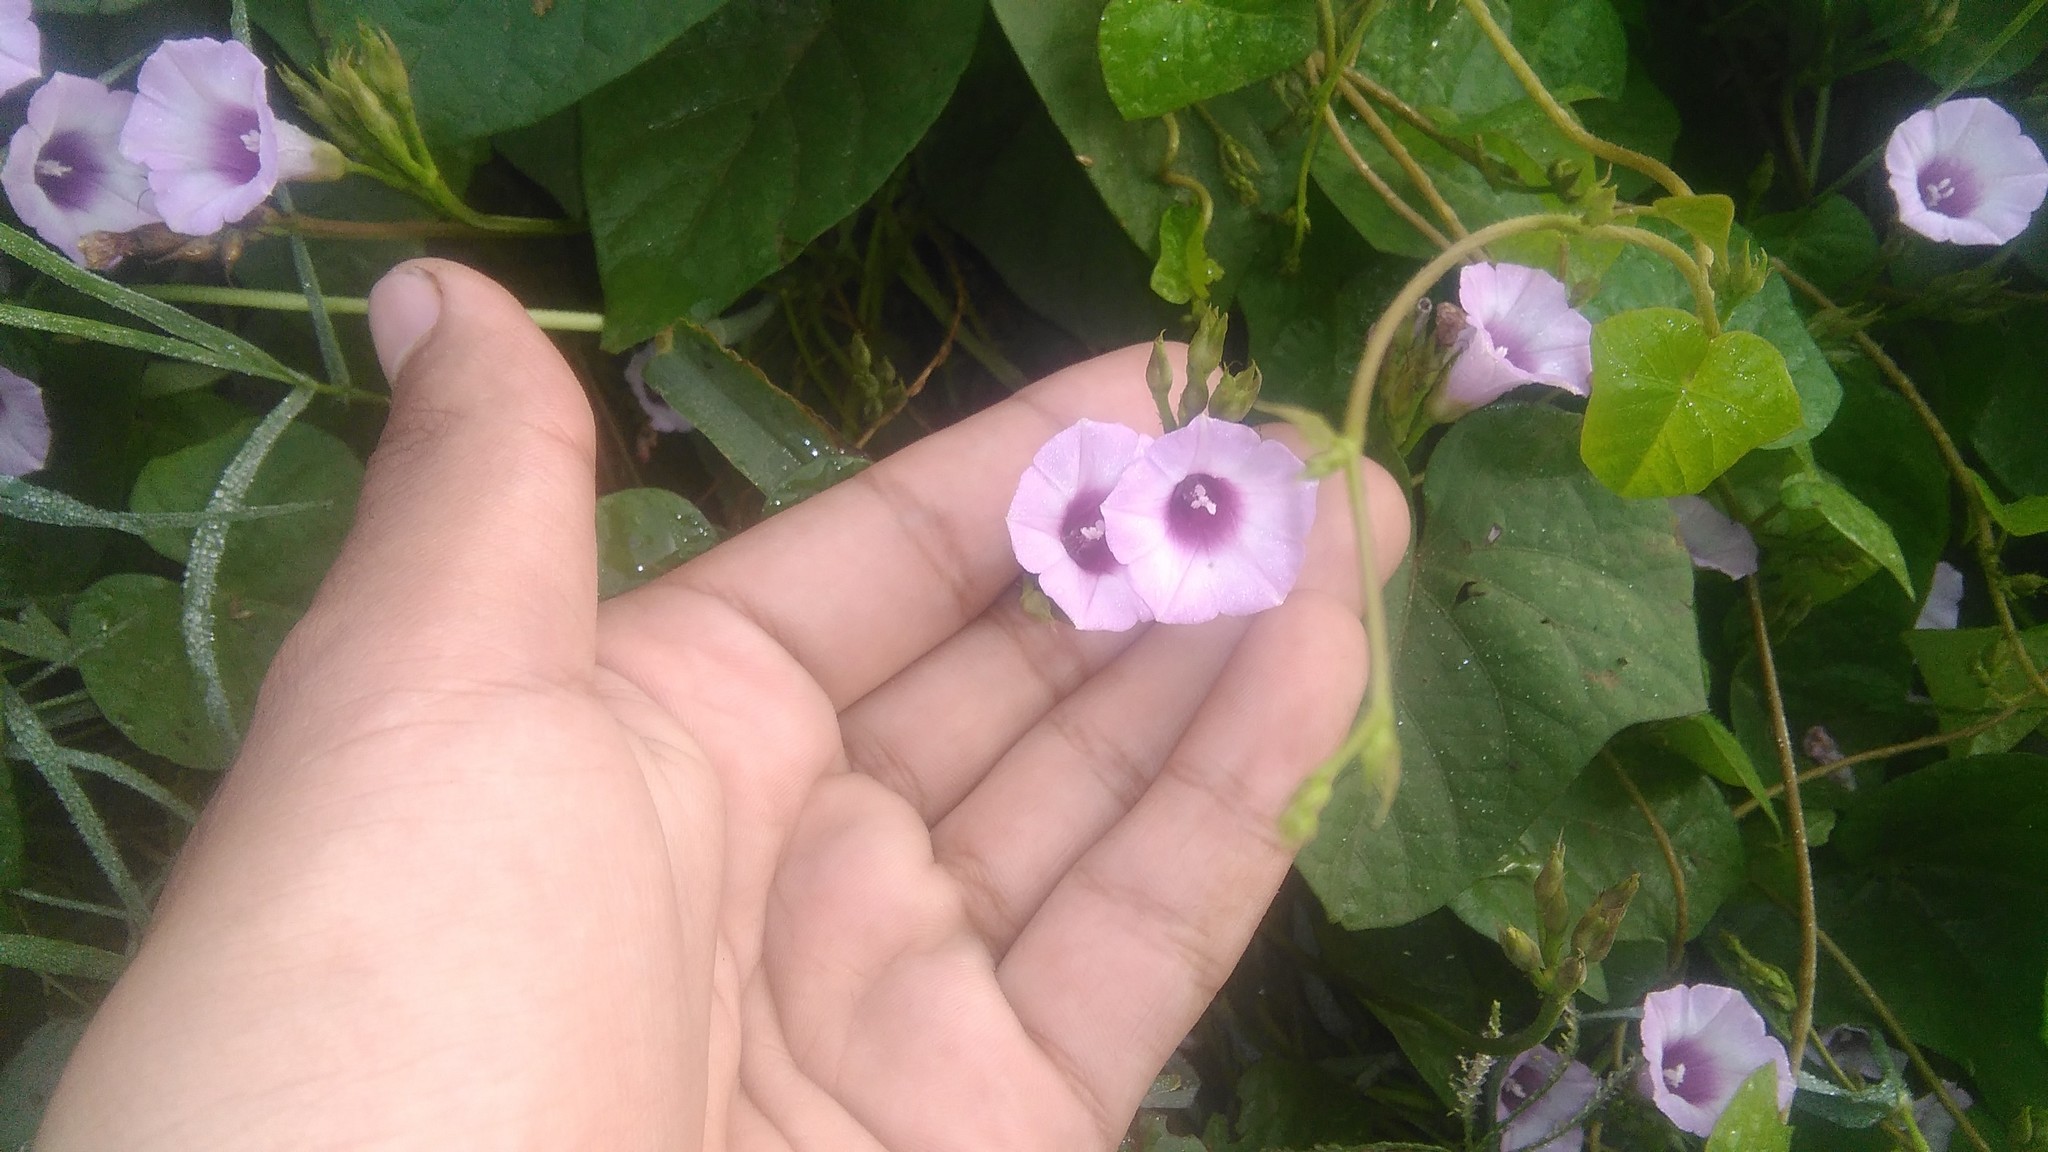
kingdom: Plantae
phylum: Tracheophyta
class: Magnoliopsida
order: Solanales
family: Convolvulaceae
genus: Ipomoea
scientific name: Ipomoea grandifolia
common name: Aiea morning glory
